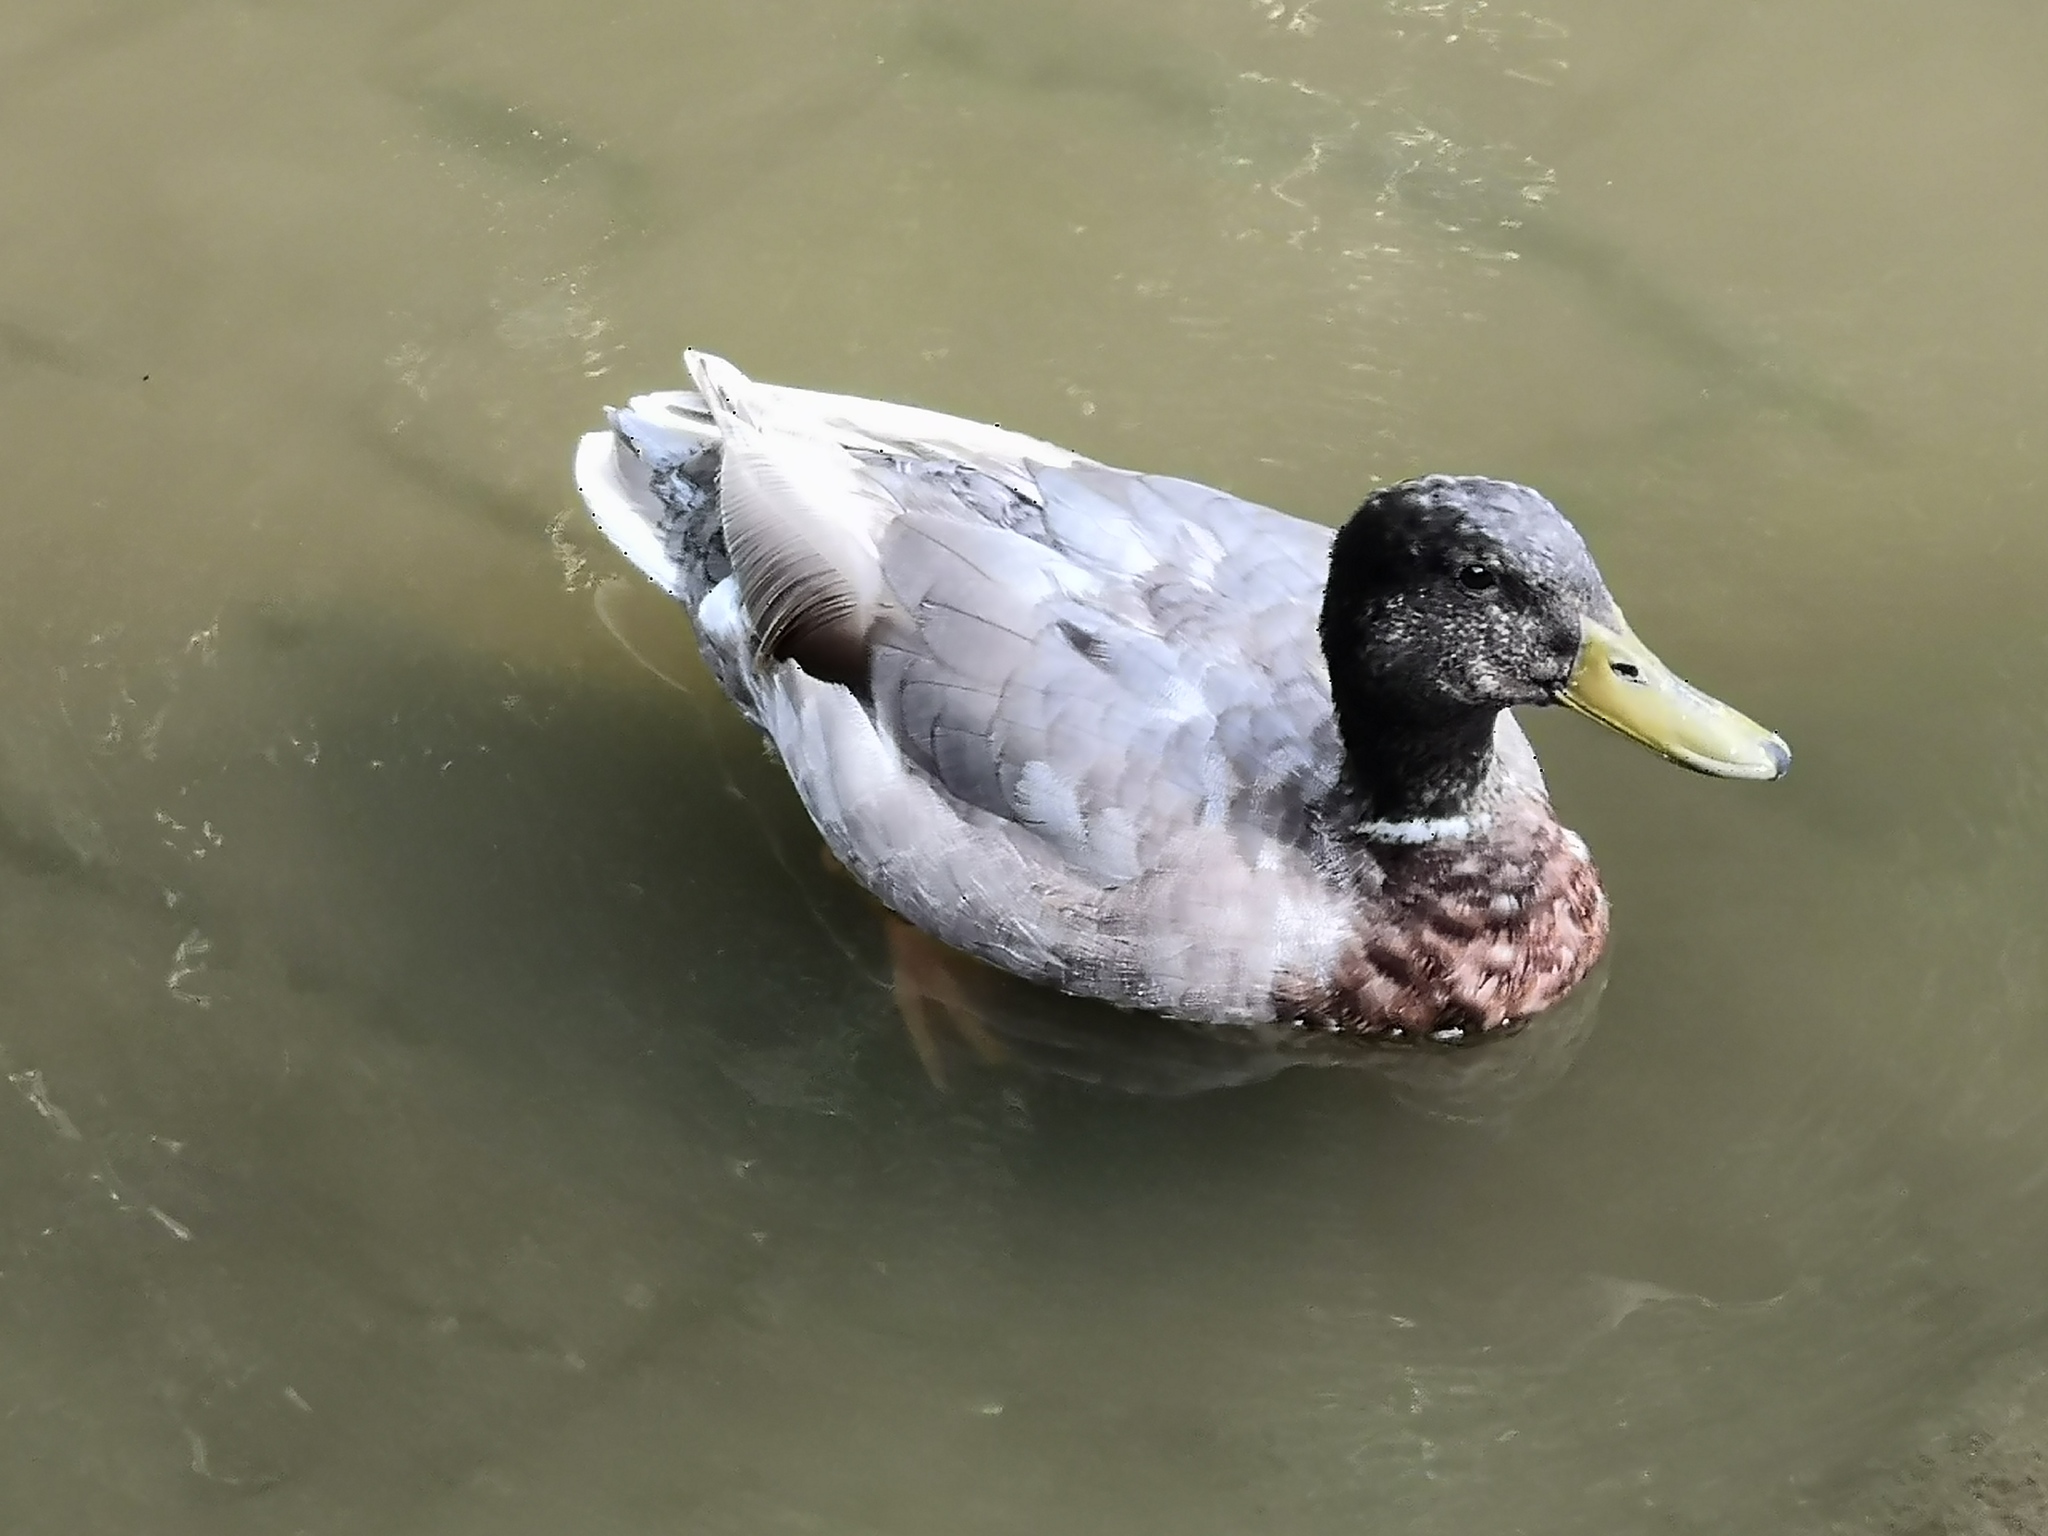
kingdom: Animalia
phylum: Chordata
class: Aves
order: Anseriformes
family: Anatidae
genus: Anas
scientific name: Anas platyrhynchos
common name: Mallard
